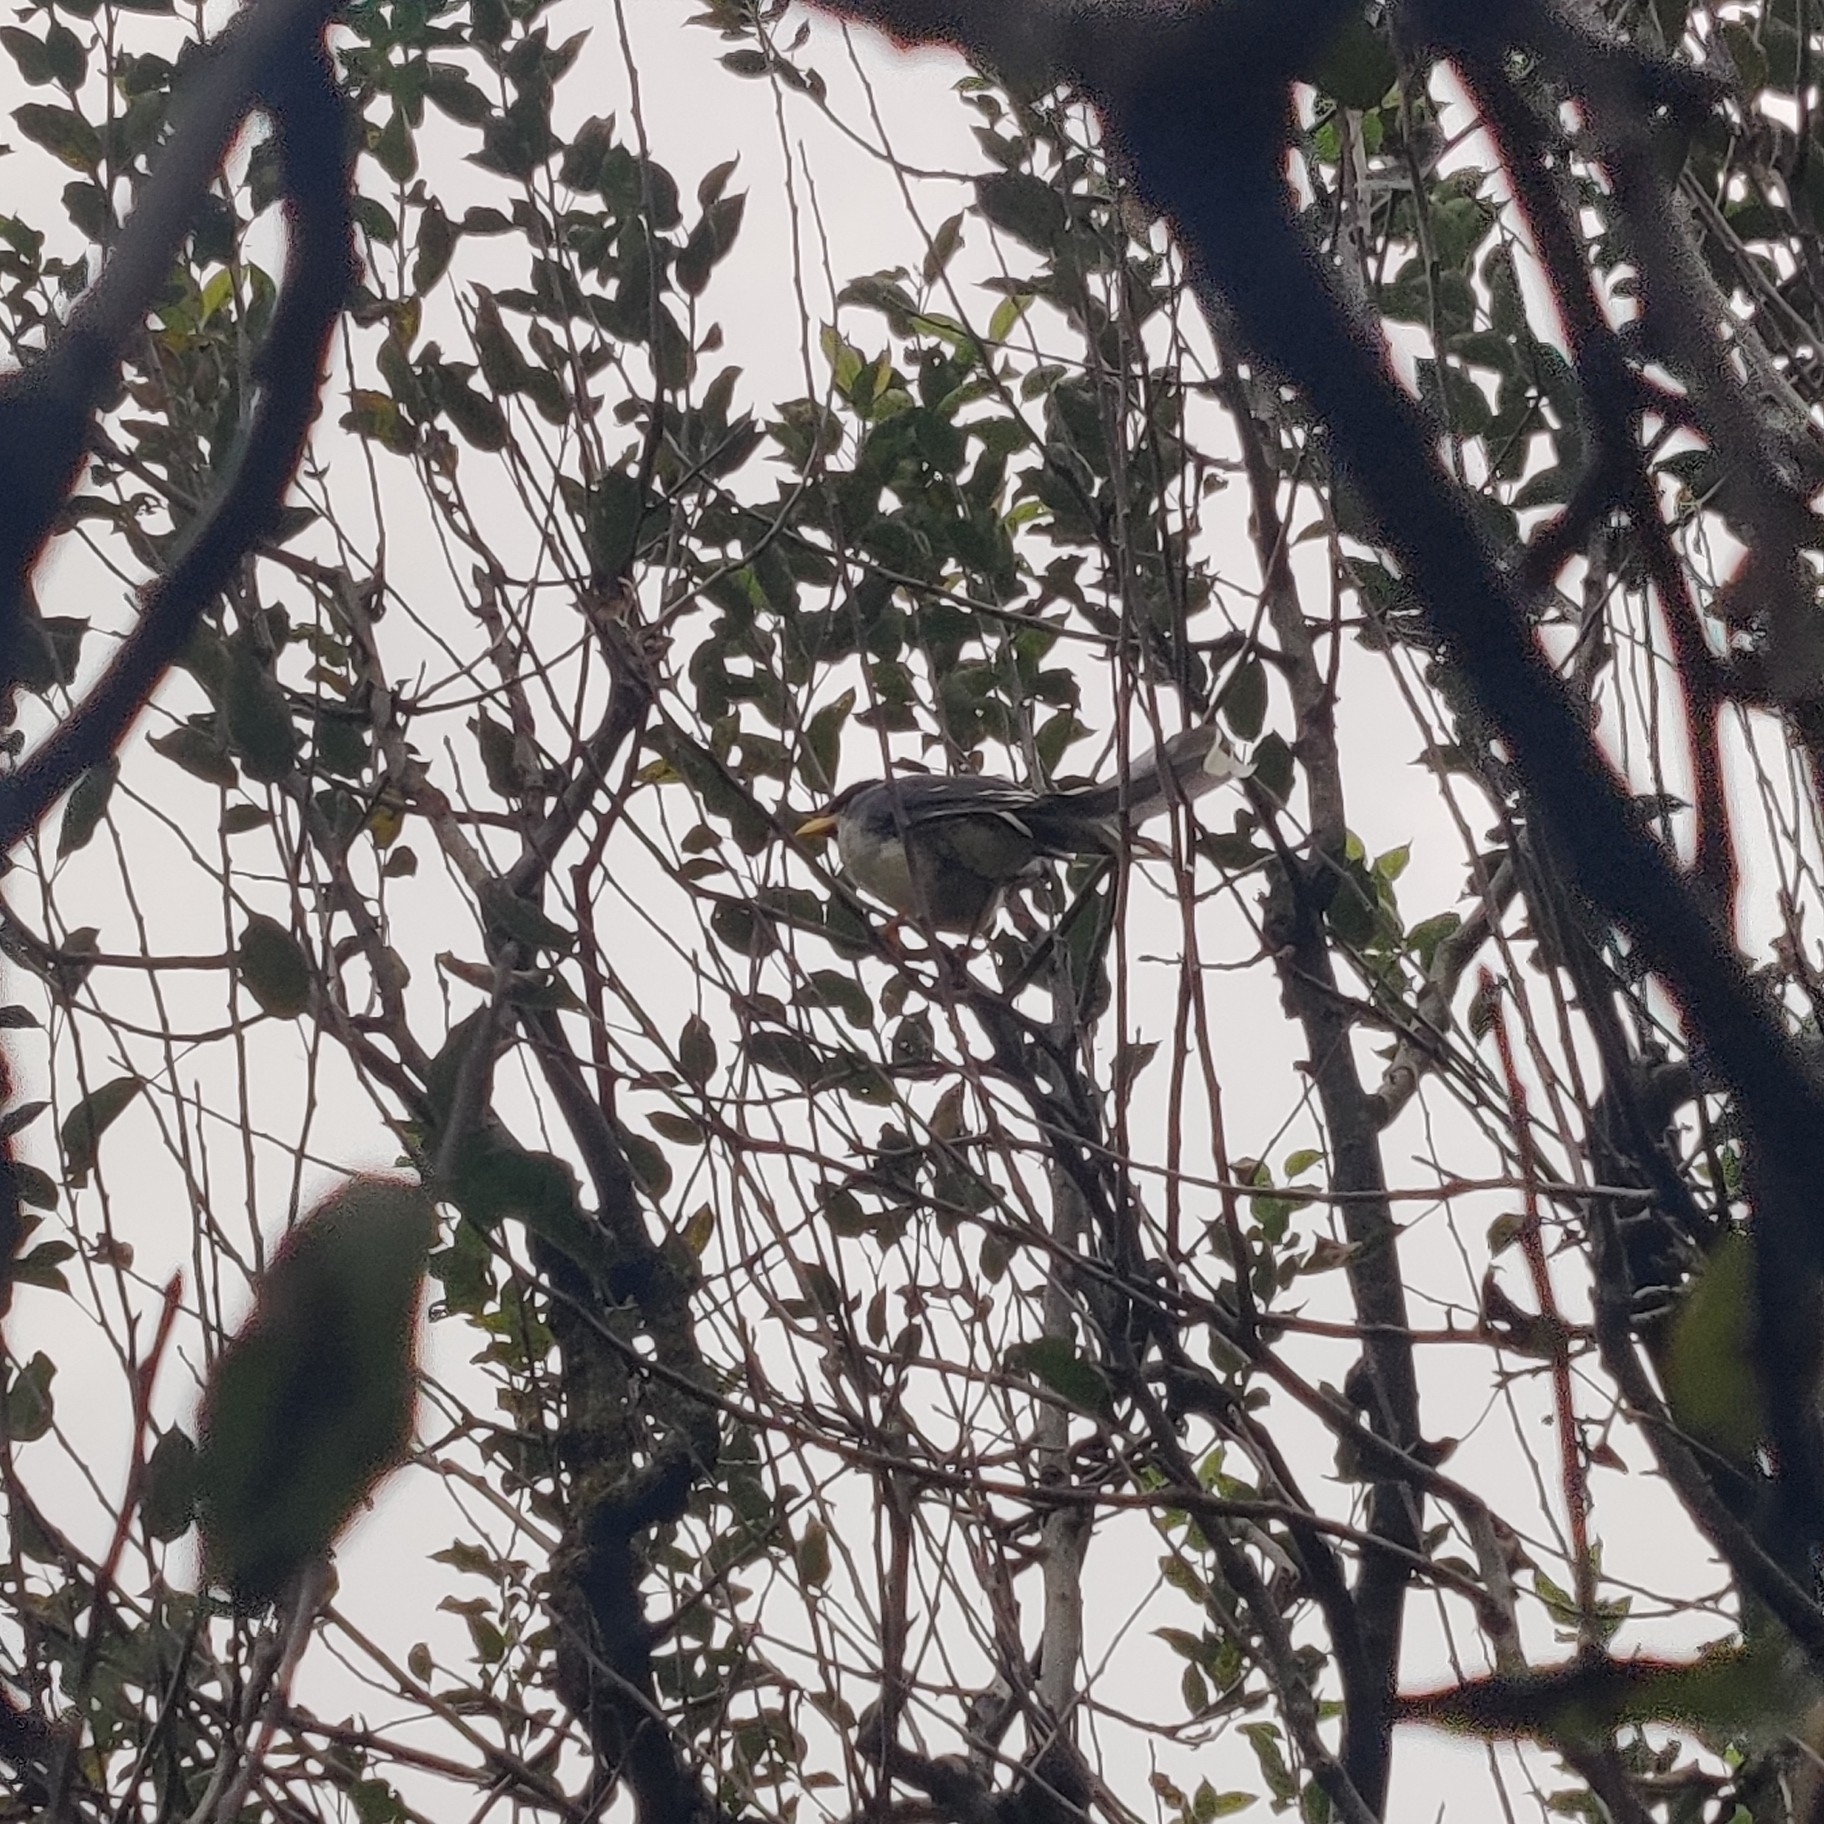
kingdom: Animalia
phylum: Chordata
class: Aves
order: Passeriformes
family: Corvidae
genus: Urocissa
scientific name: Urocissa flavirostris
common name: Yellow-billed blue magpie
